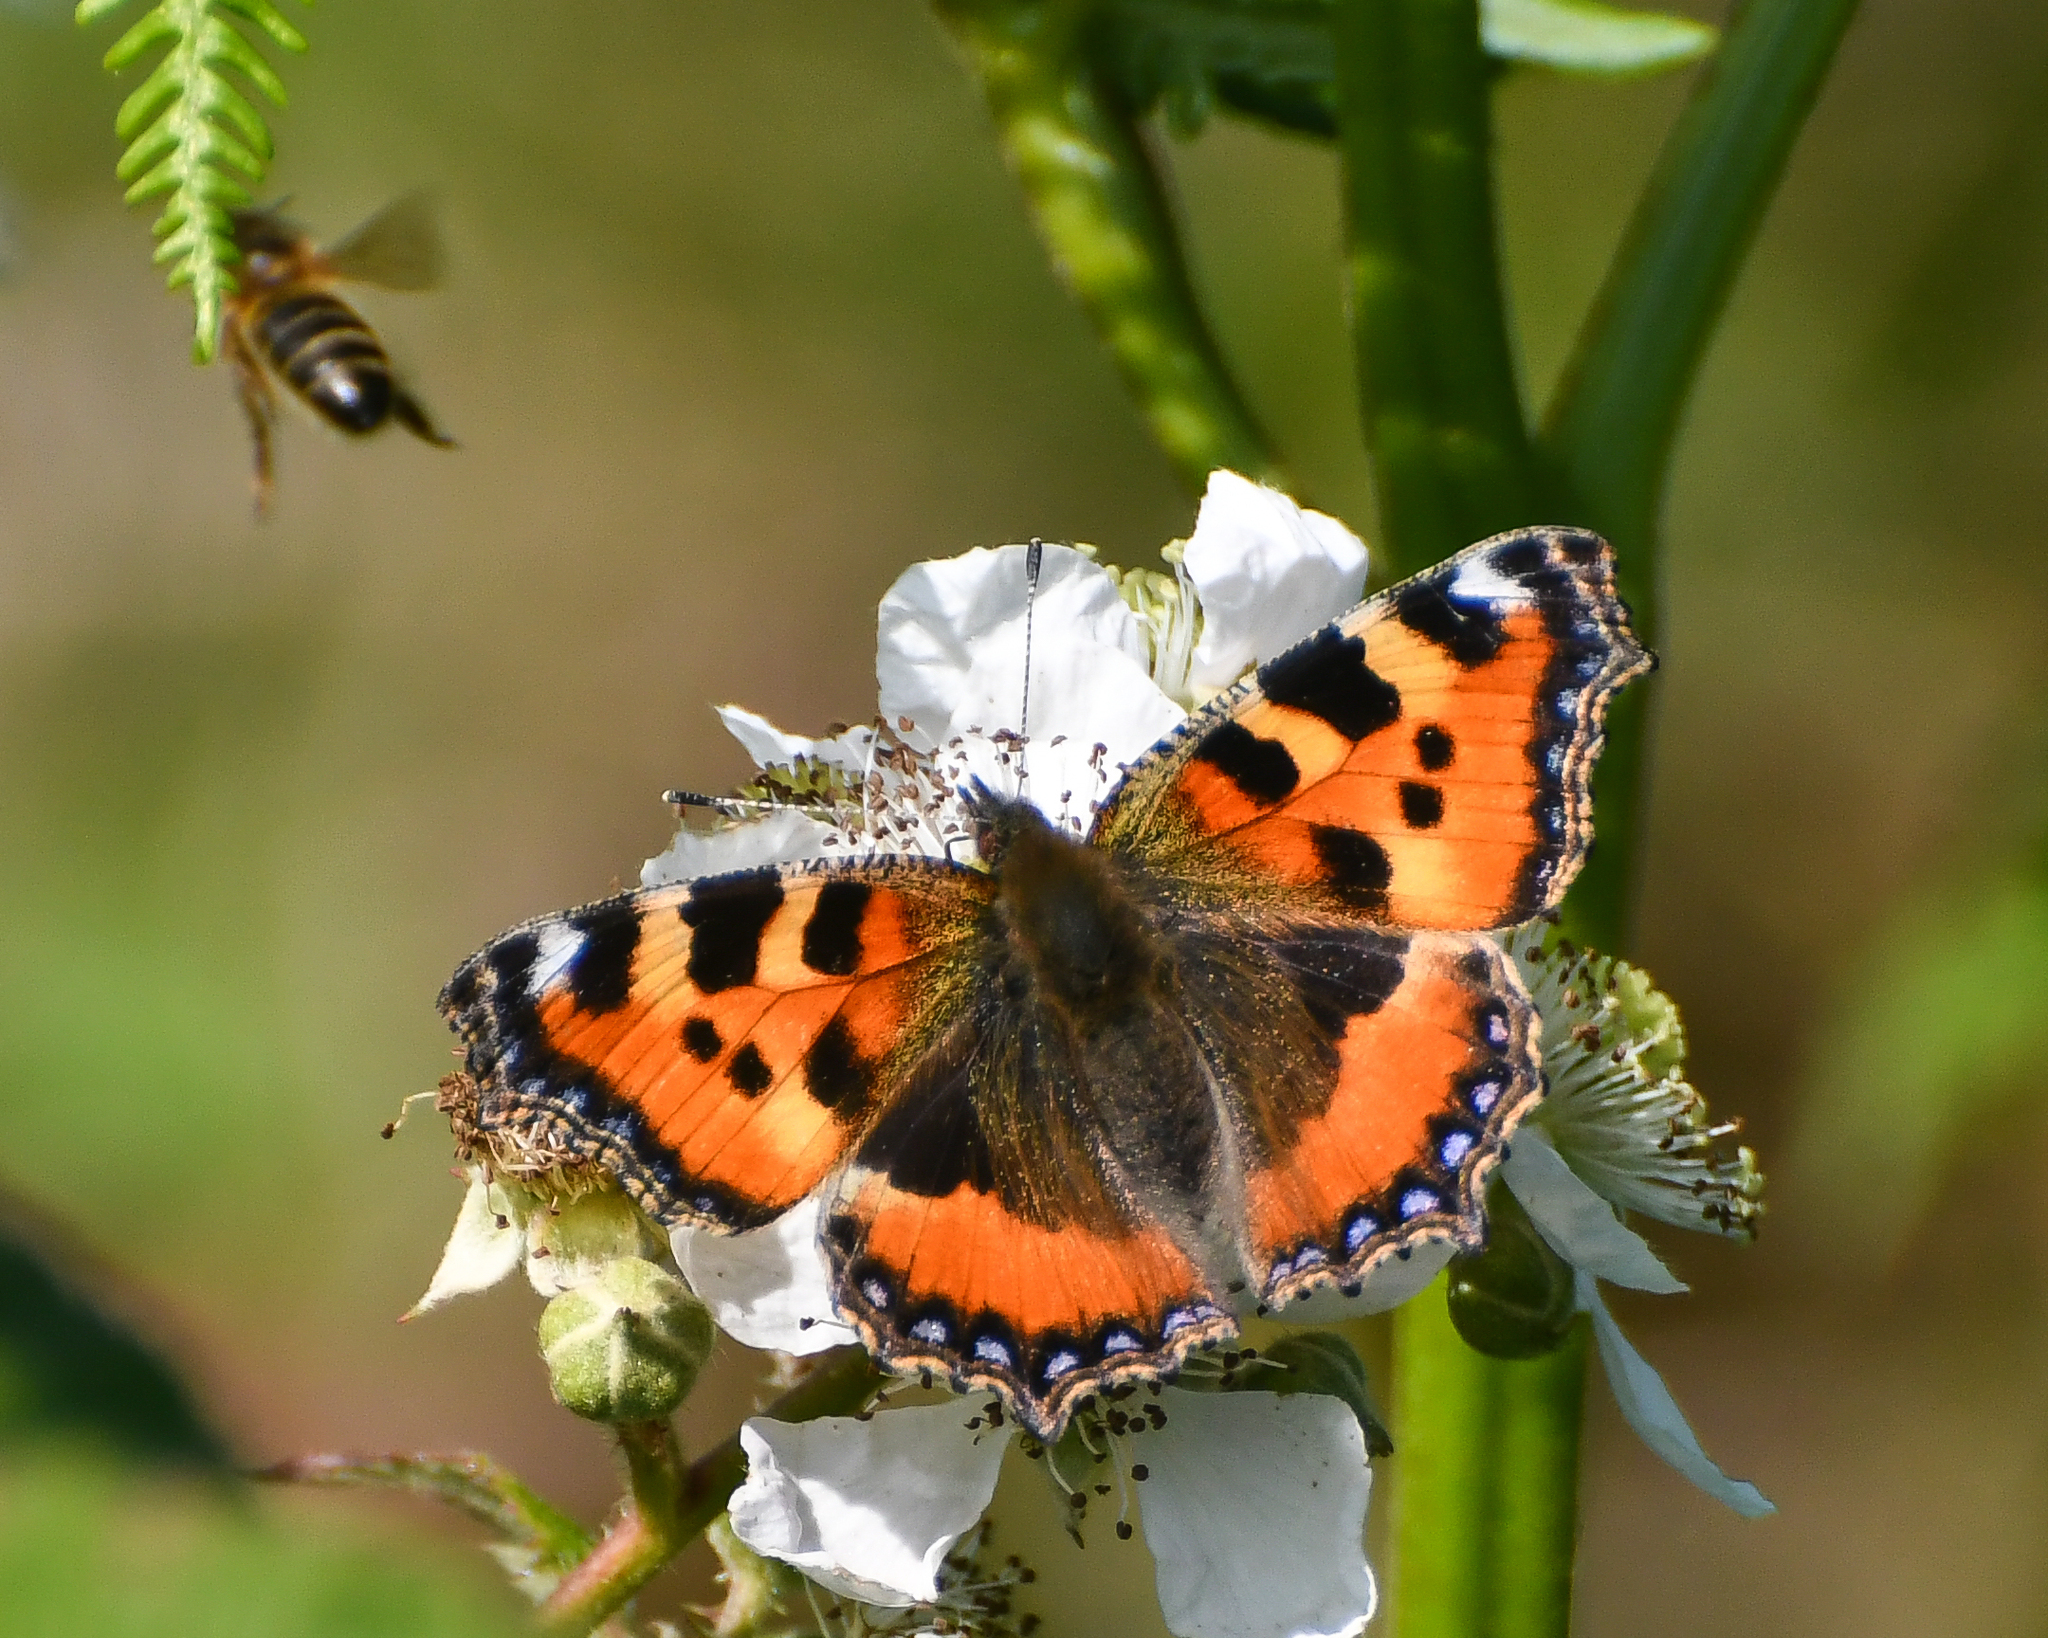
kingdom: Animalia
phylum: Arthropoda
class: Insecta
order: Lepidoptera
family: Nymphalidae
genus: Aglais
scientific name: Aglais urticae
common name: Small tortoiseshell
